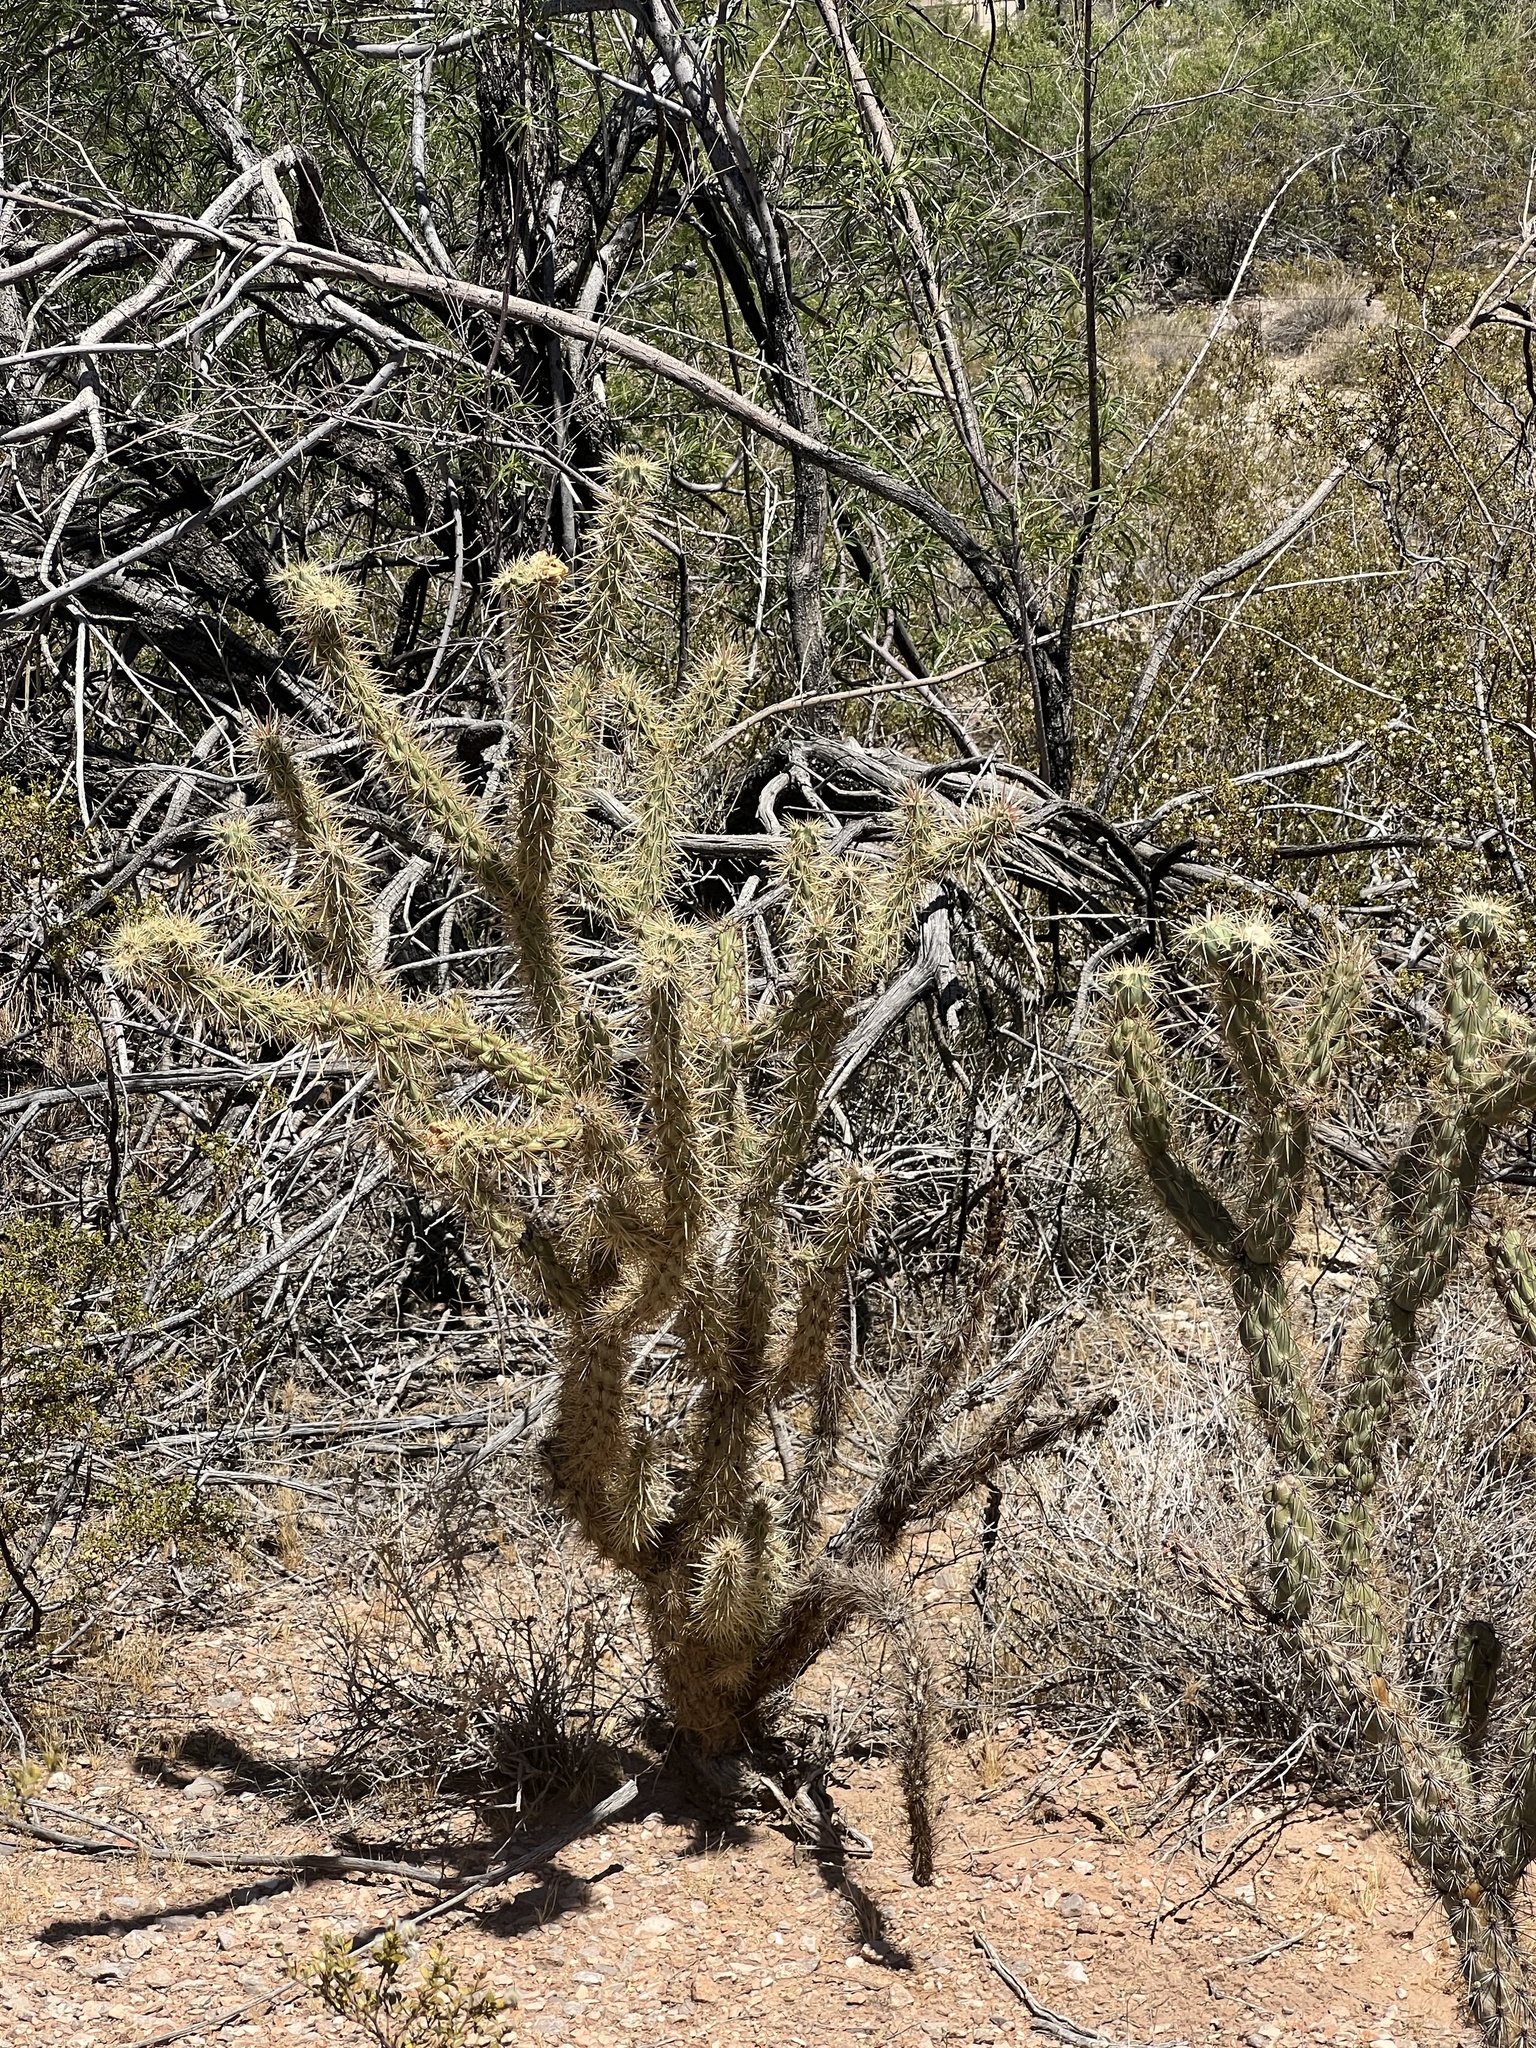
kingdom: Plantae
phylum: Tracheophyta
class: Magnoliopsida
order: Caryophyllales
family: Cactaceae
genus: Cylindropuntia
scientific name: Cylindropuntia acanthocarpa
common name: Buckhorn cholla
